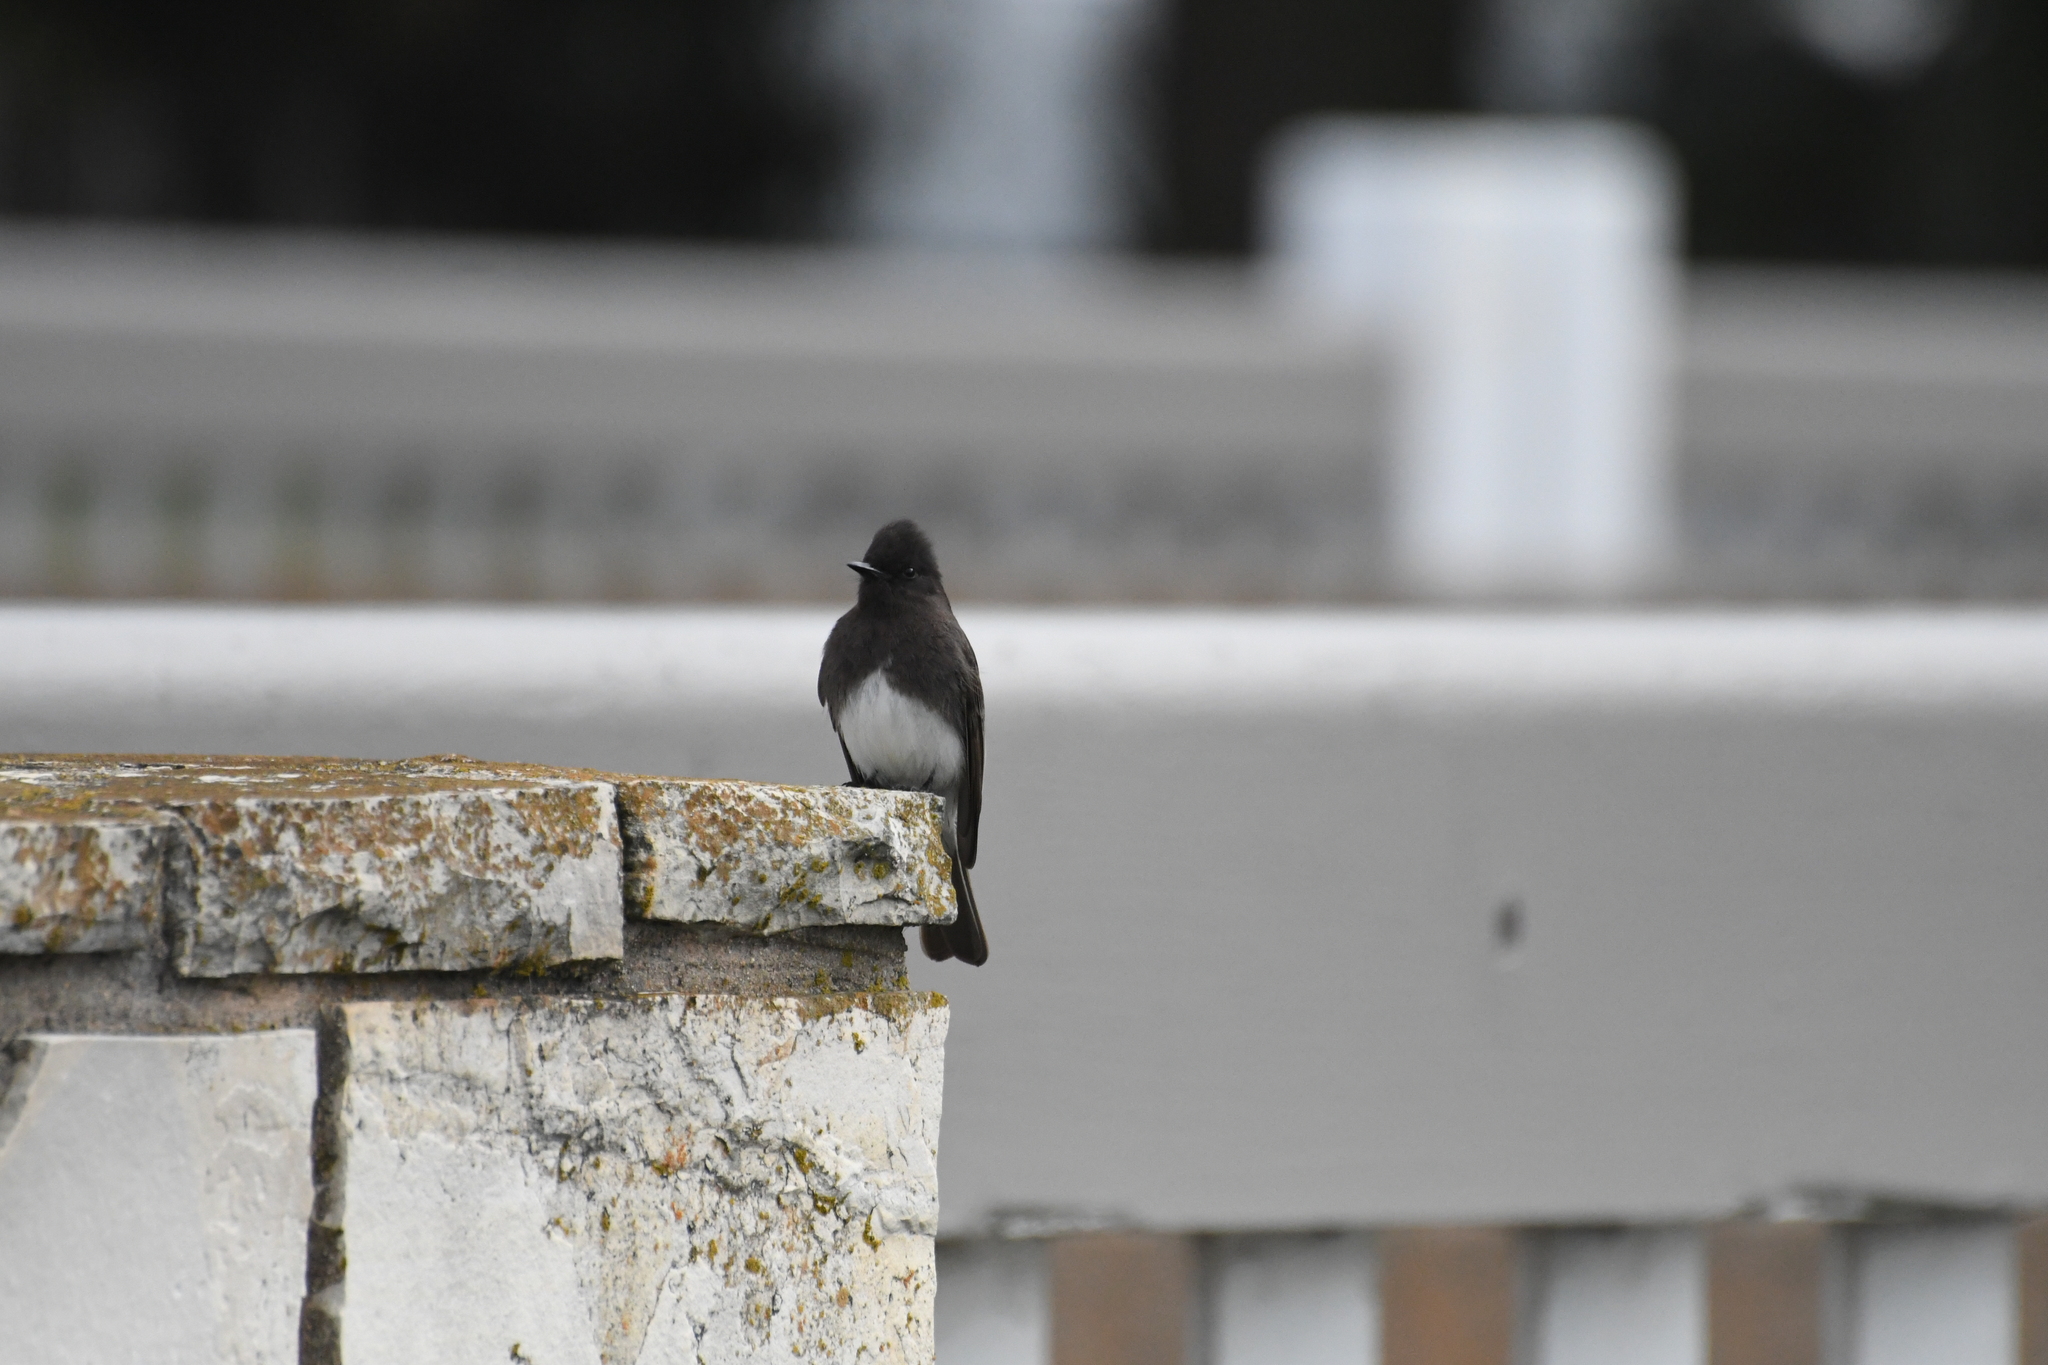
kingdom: Animalia
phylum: Chordata
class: Aves
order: Passeriformes
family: Tyrannidae
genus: Sayornis
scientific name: Sayornis nigricans
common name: Black phoebe
